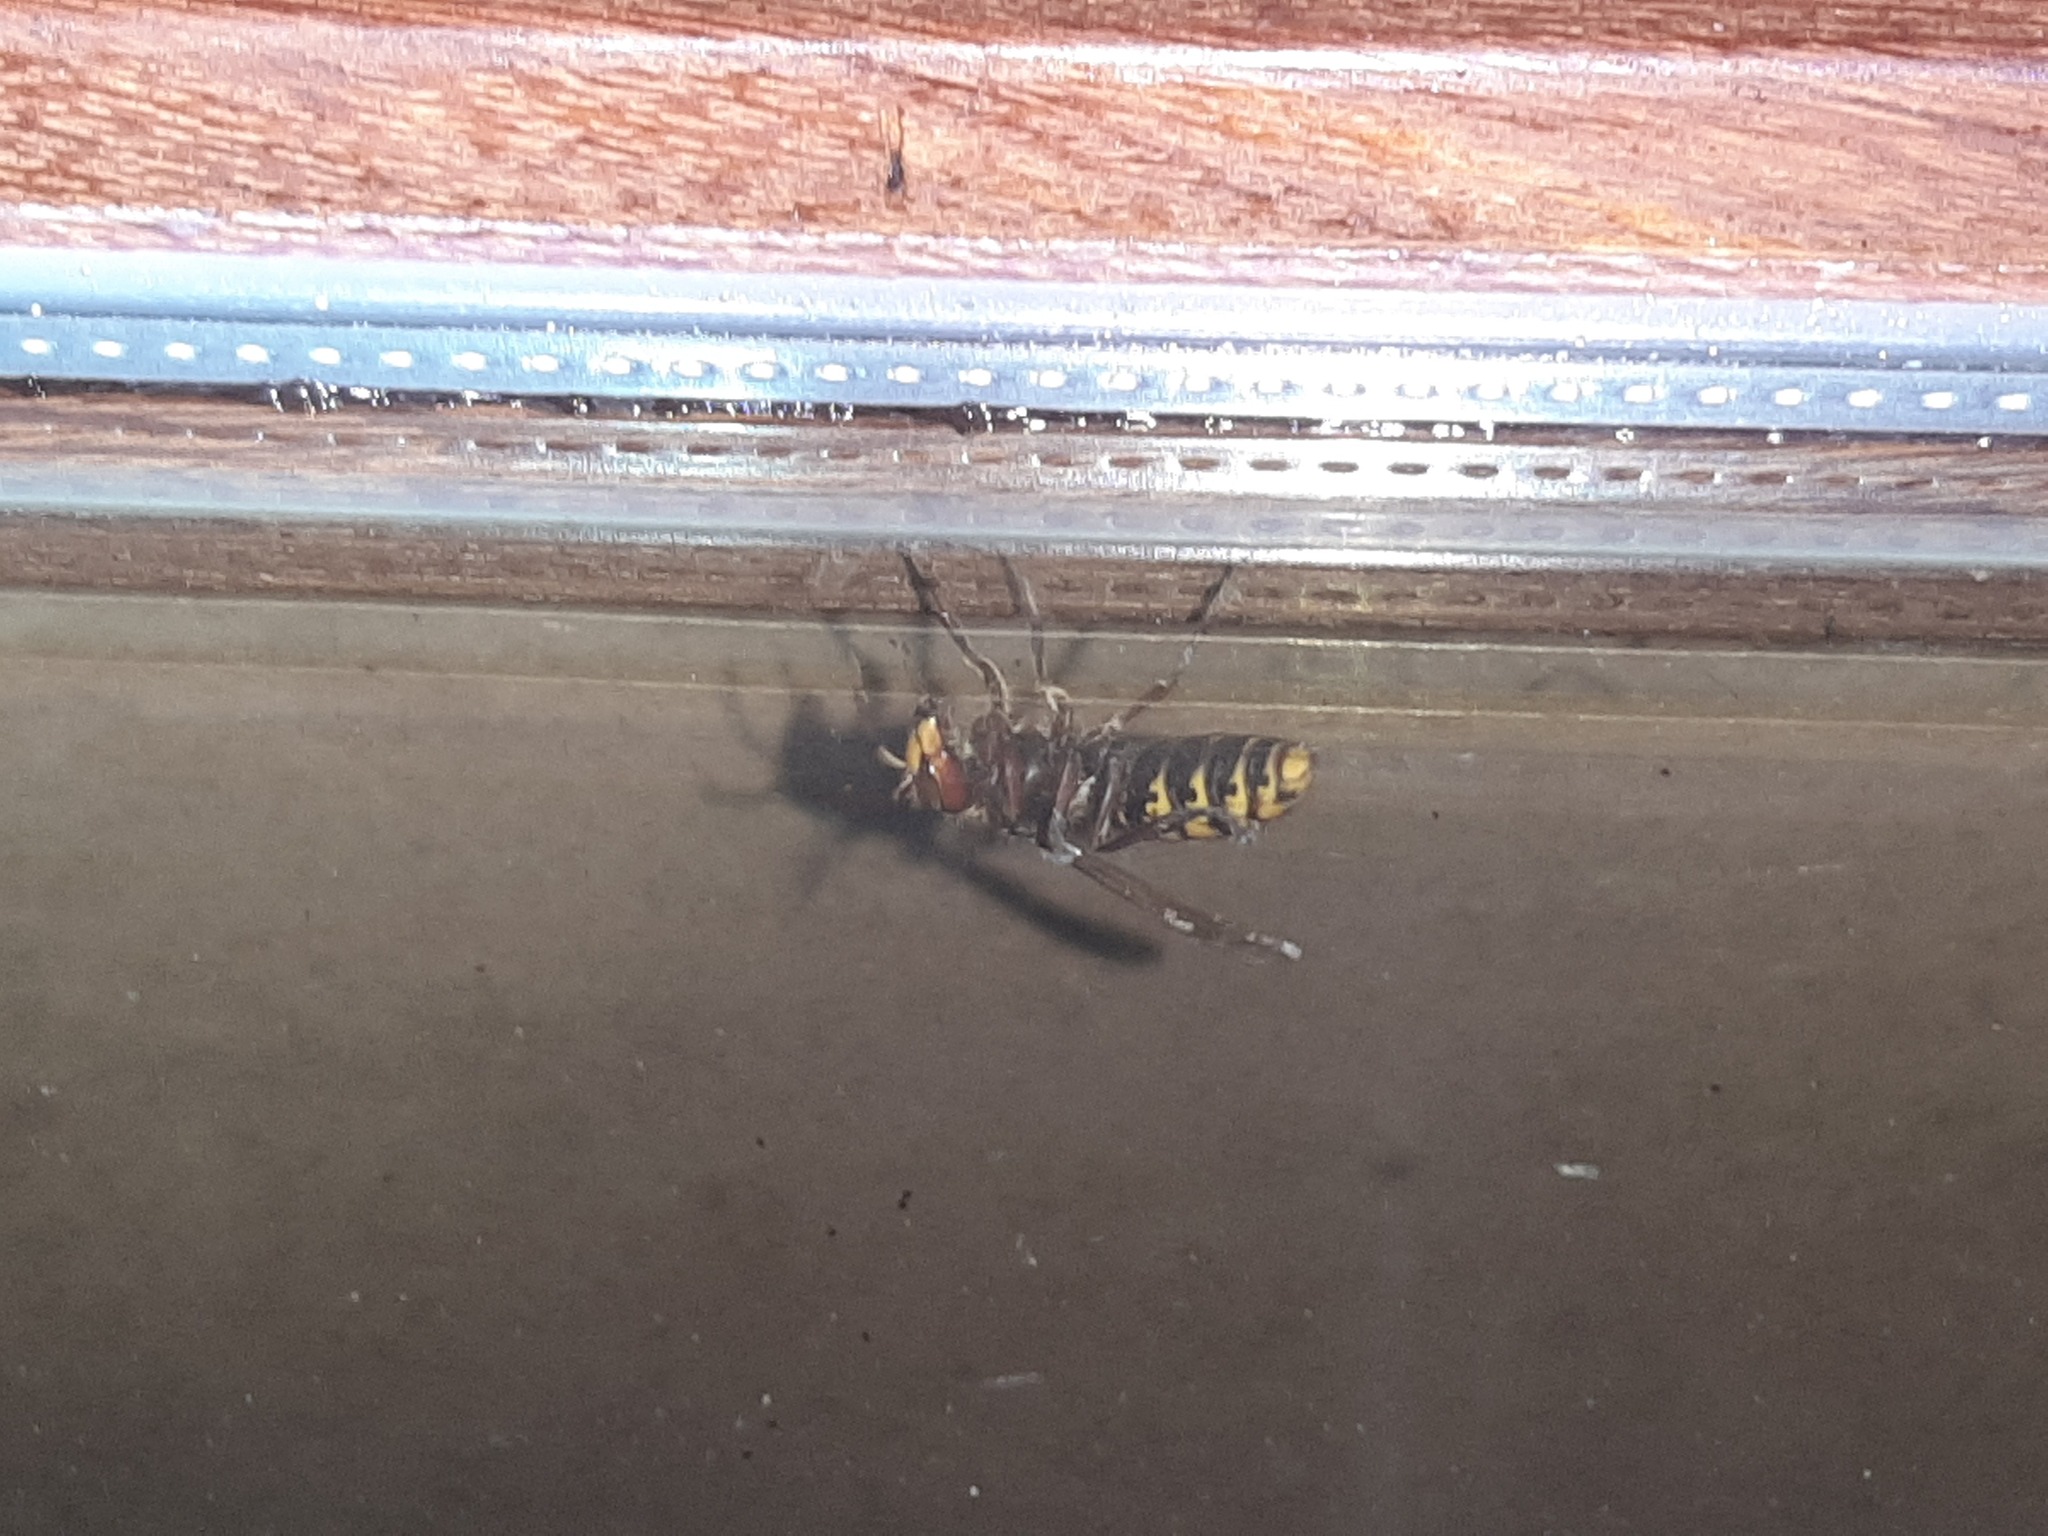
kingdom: Animalia
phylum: Arthropoda
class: Insecta
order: Hymenoptera
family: Vespidae
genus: Vespa
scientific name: Vespa crabro
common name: Hornet
